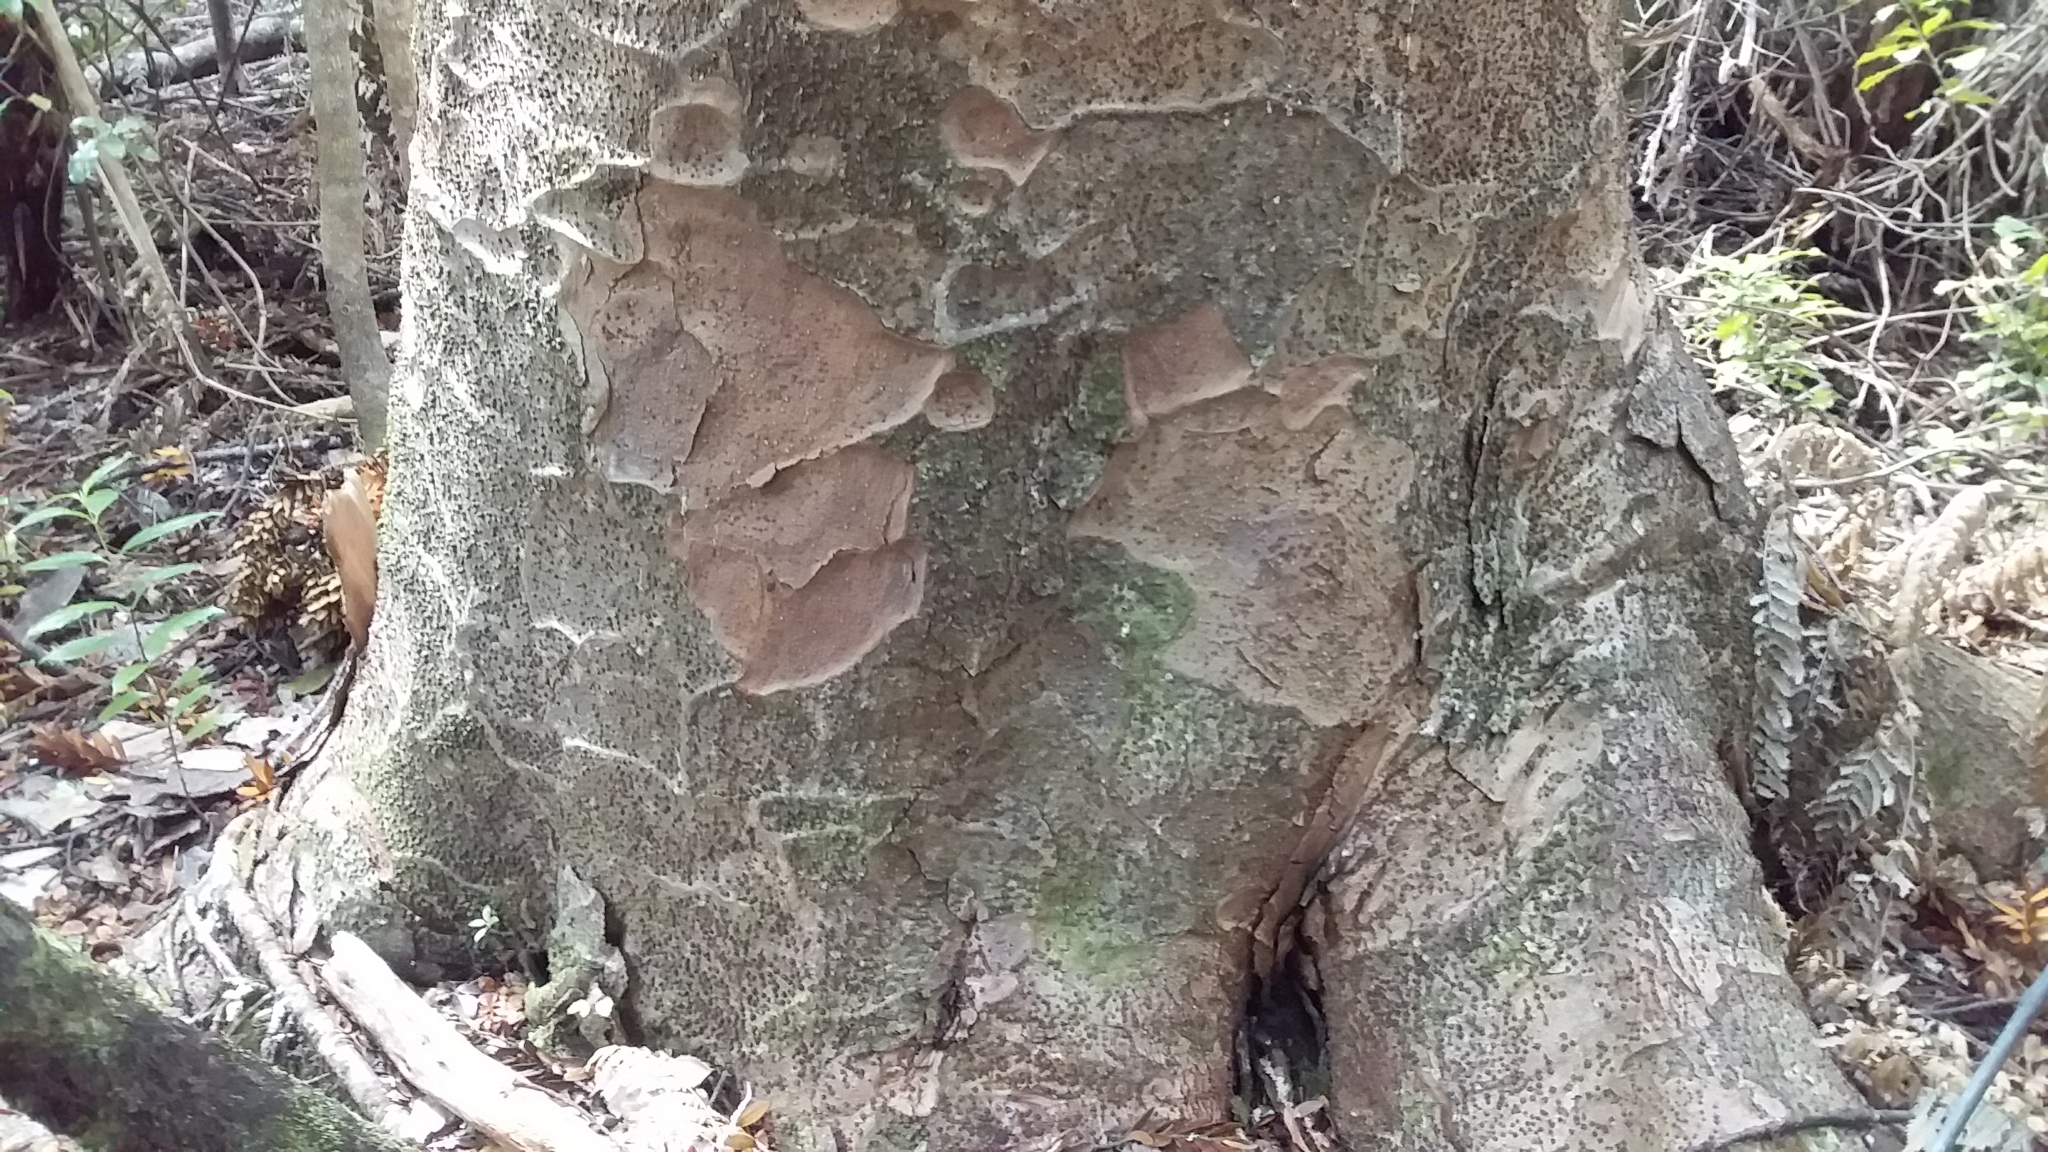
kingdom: Plantae
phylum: Tracheophyta
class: Pinopsida
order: Pinales
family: Araucariaceae
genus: Agathis
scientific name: Agathis australis
